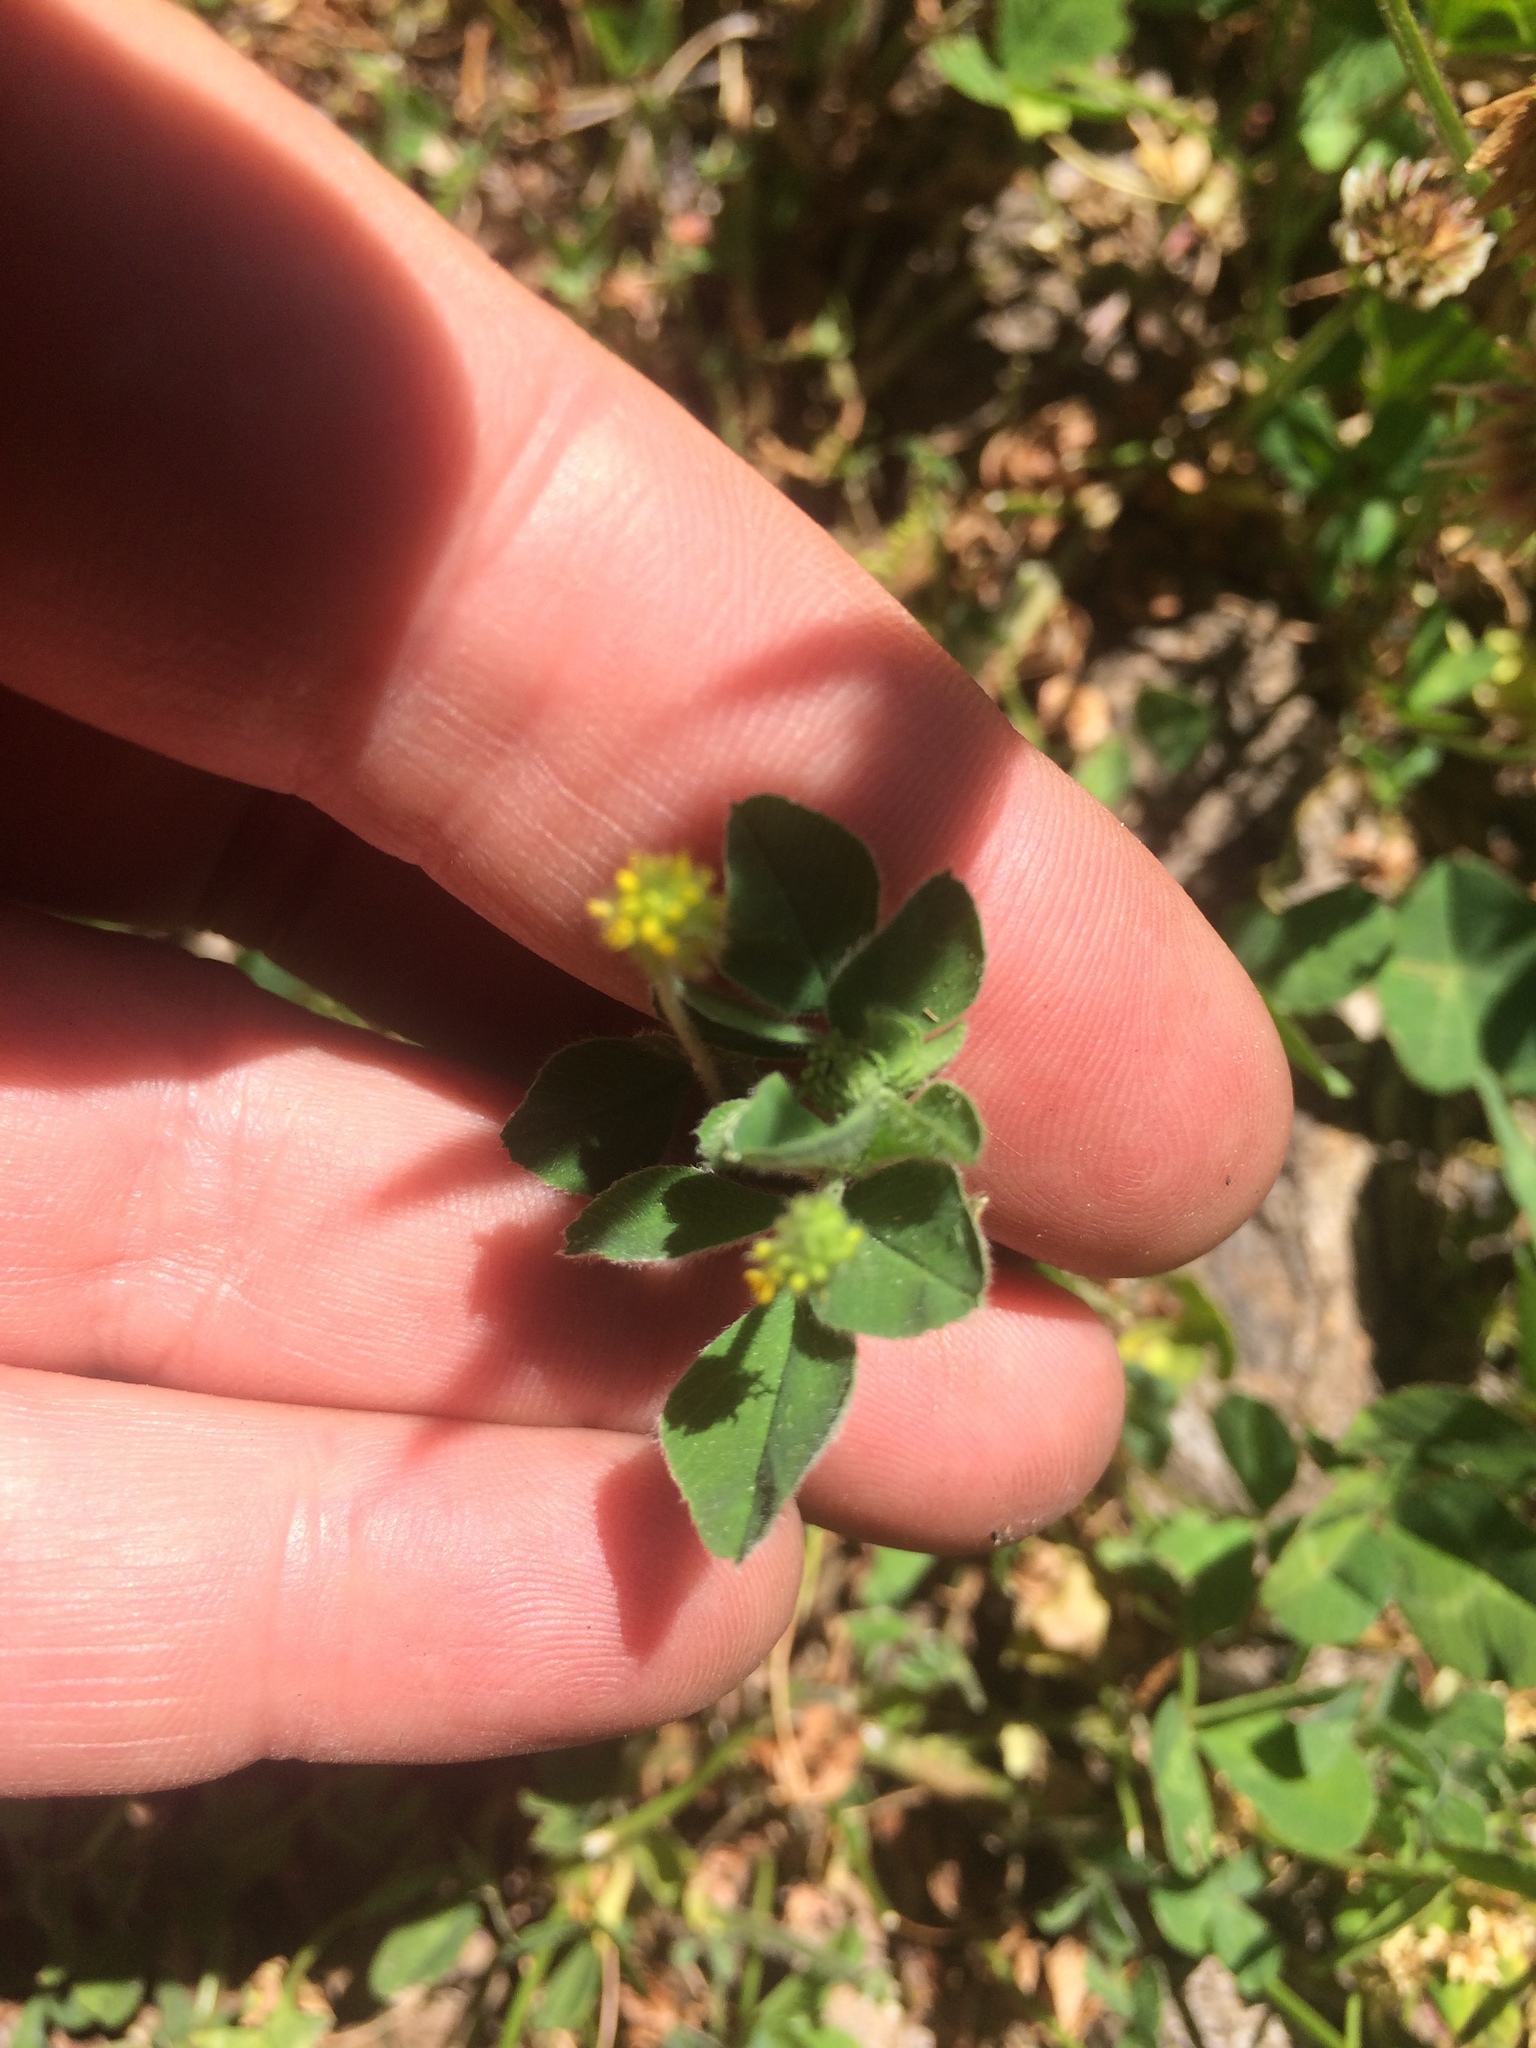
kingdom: Plantae
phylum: Tracheophyta
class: Magnoliopsida
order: Fabales
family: Fabaceae
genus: Medicago
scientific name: Medicago lupulina
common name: Black medick
